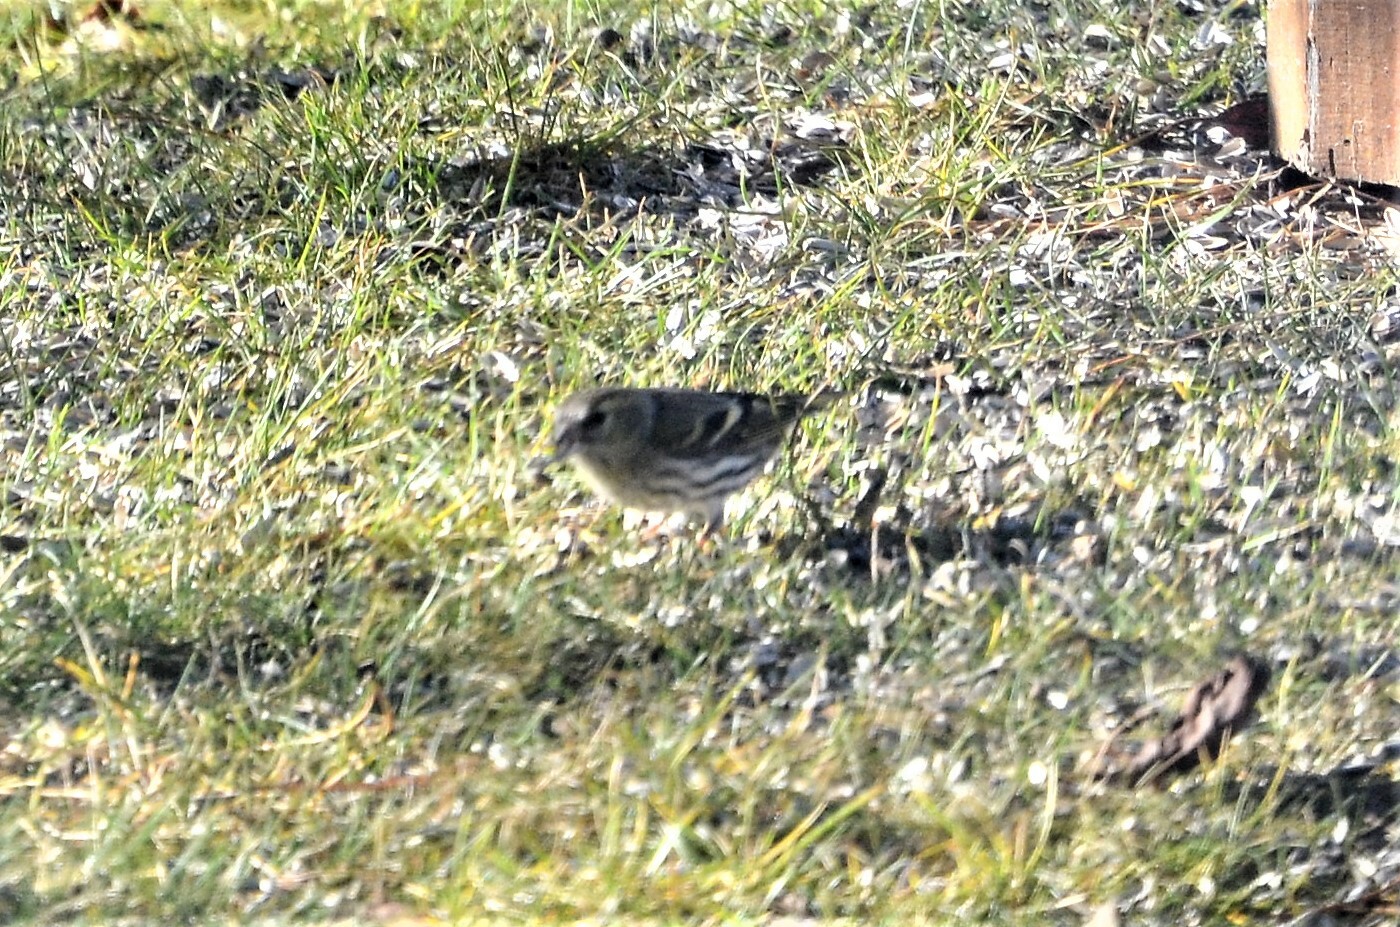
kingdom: Animalia
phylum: Chordata
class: Aves
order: Passeriformes
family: Fringillidae
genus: Spinus
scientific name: Spinus spinus
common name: Eurasian siskin
